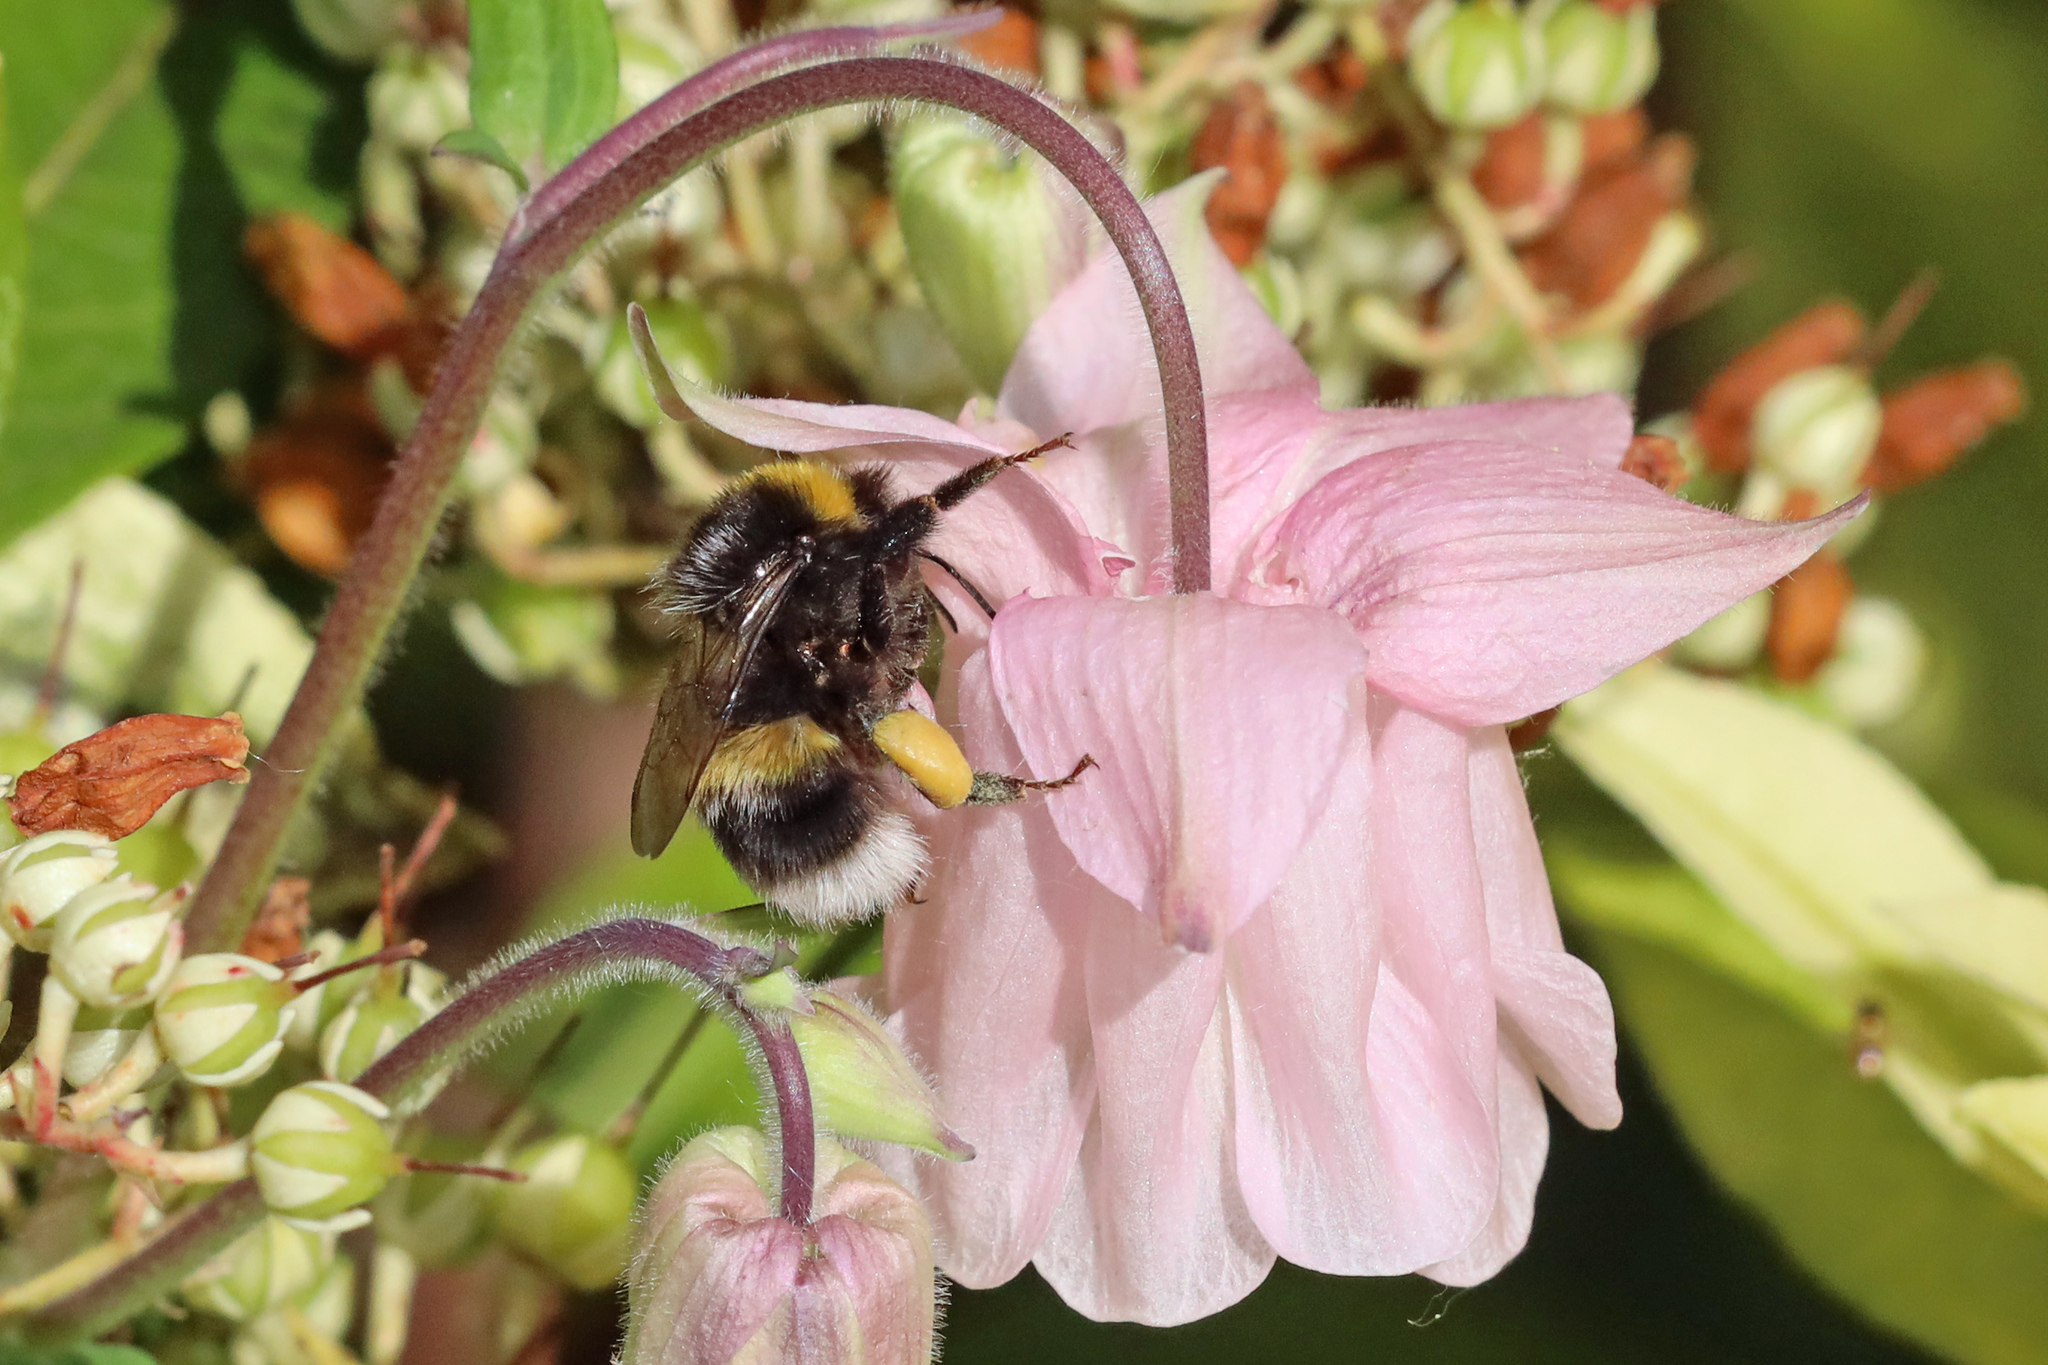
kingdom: Animalia
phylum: Arthropoda
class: Insecta
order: Hymenoptera
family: Apidae
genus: Bombus
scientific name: Bombus
